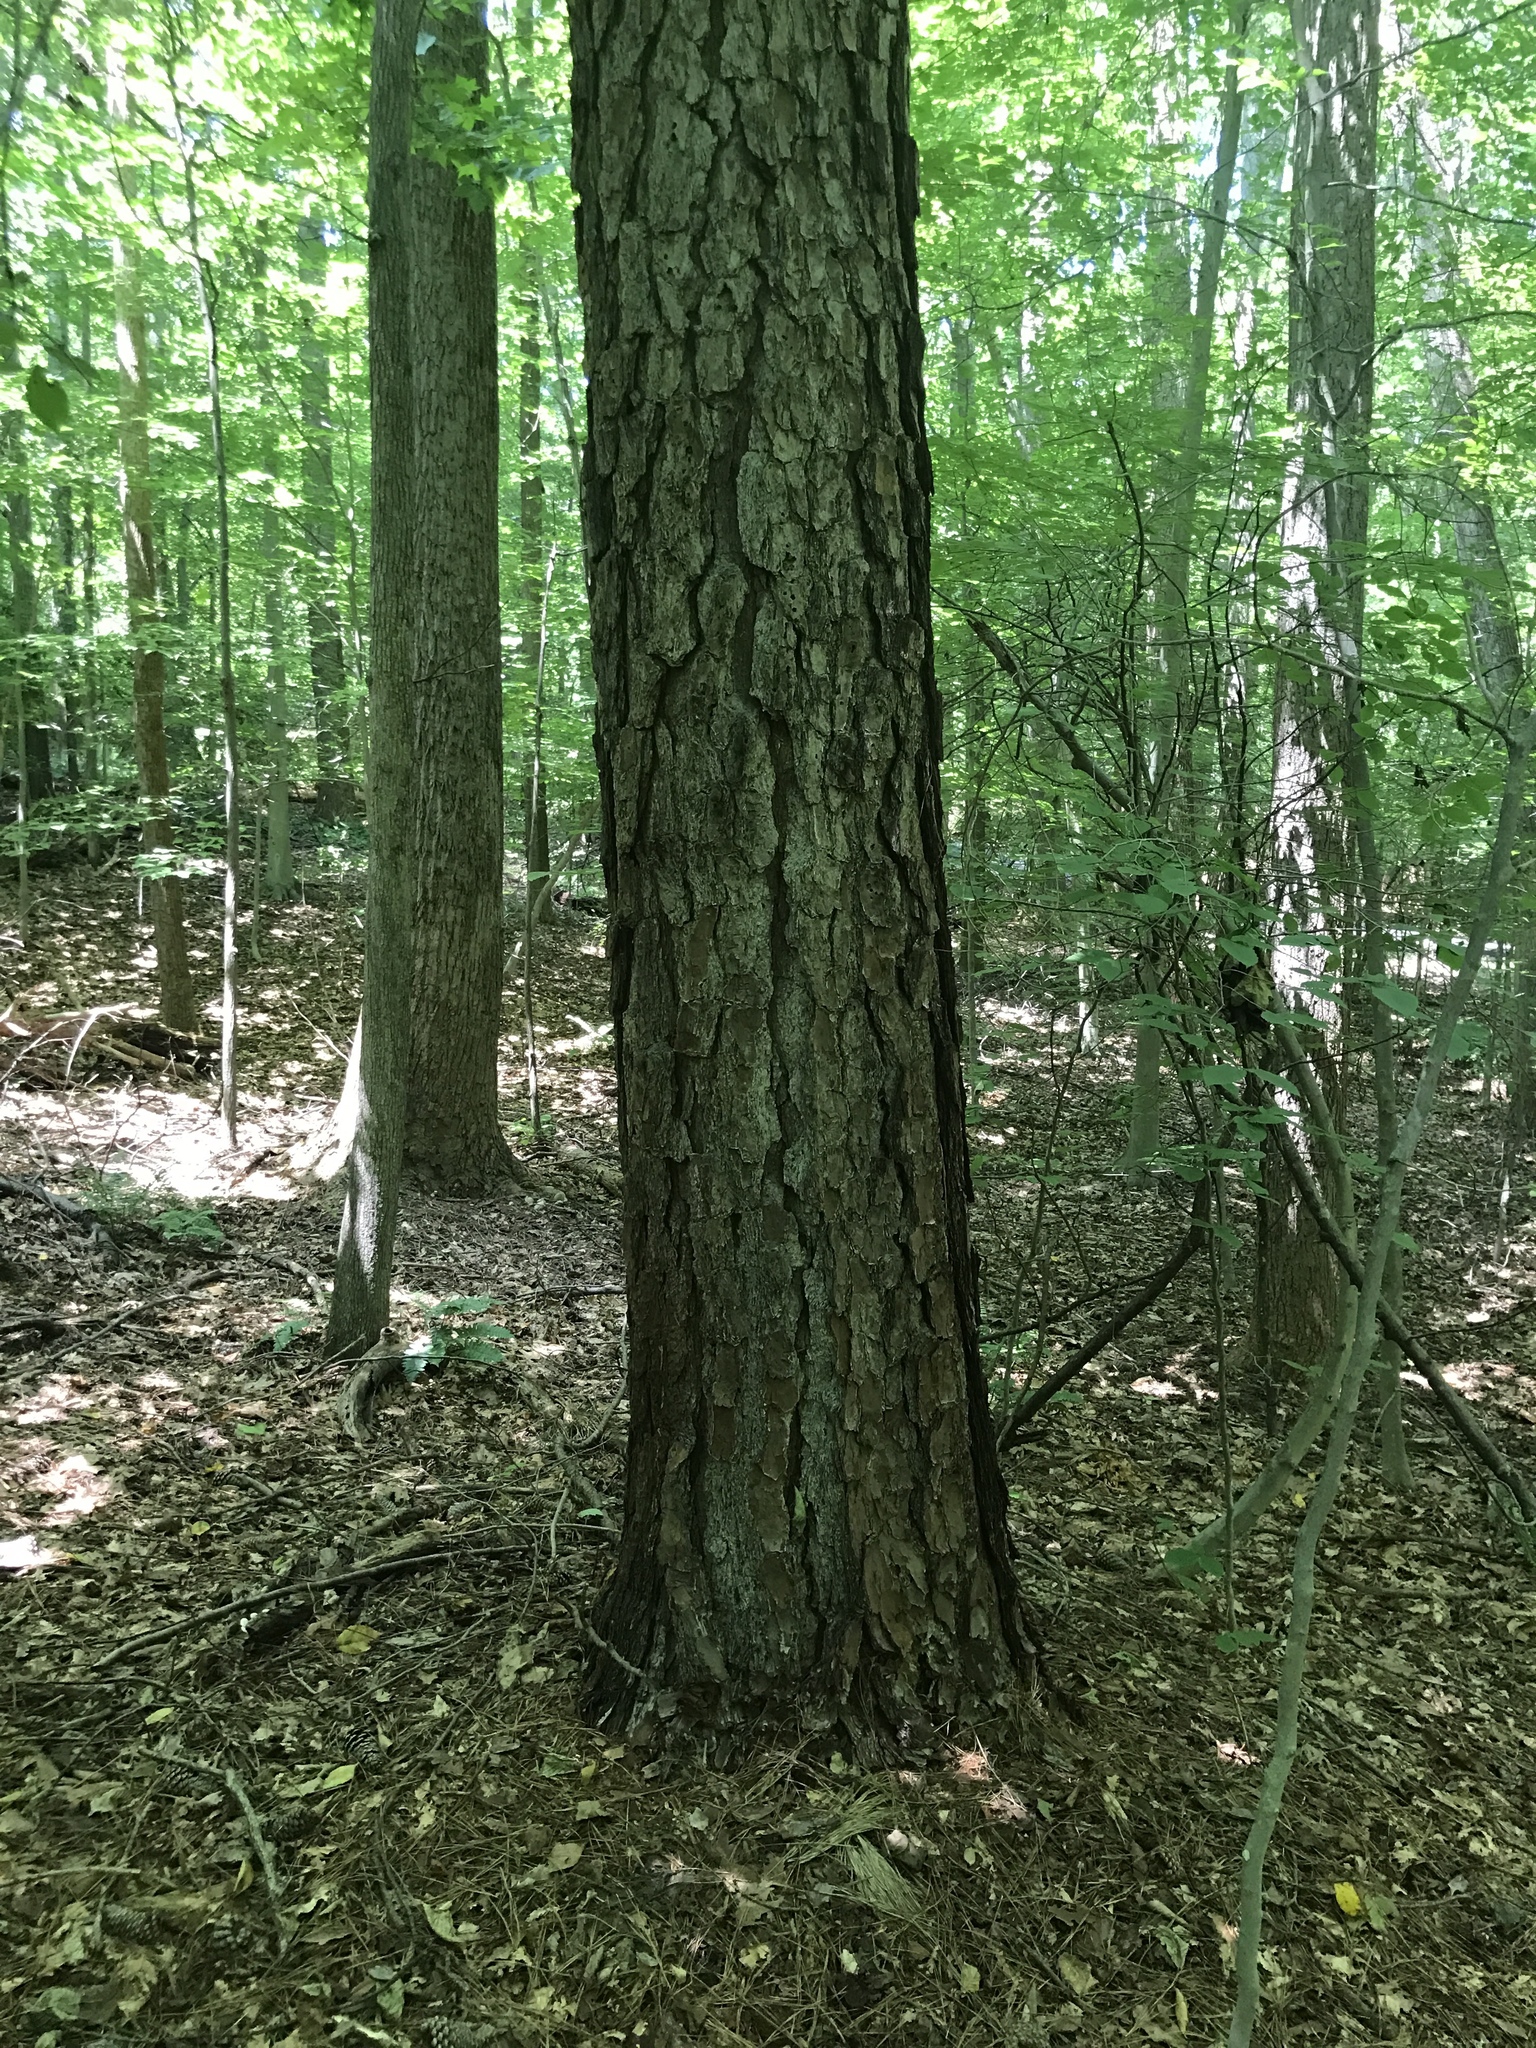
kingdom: Plantae
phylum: Tracheophyta
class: Pinopsida
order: Pinales
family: Pinaceae
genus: Pinus
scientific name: Pinus taeda
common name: Loblolly pine
